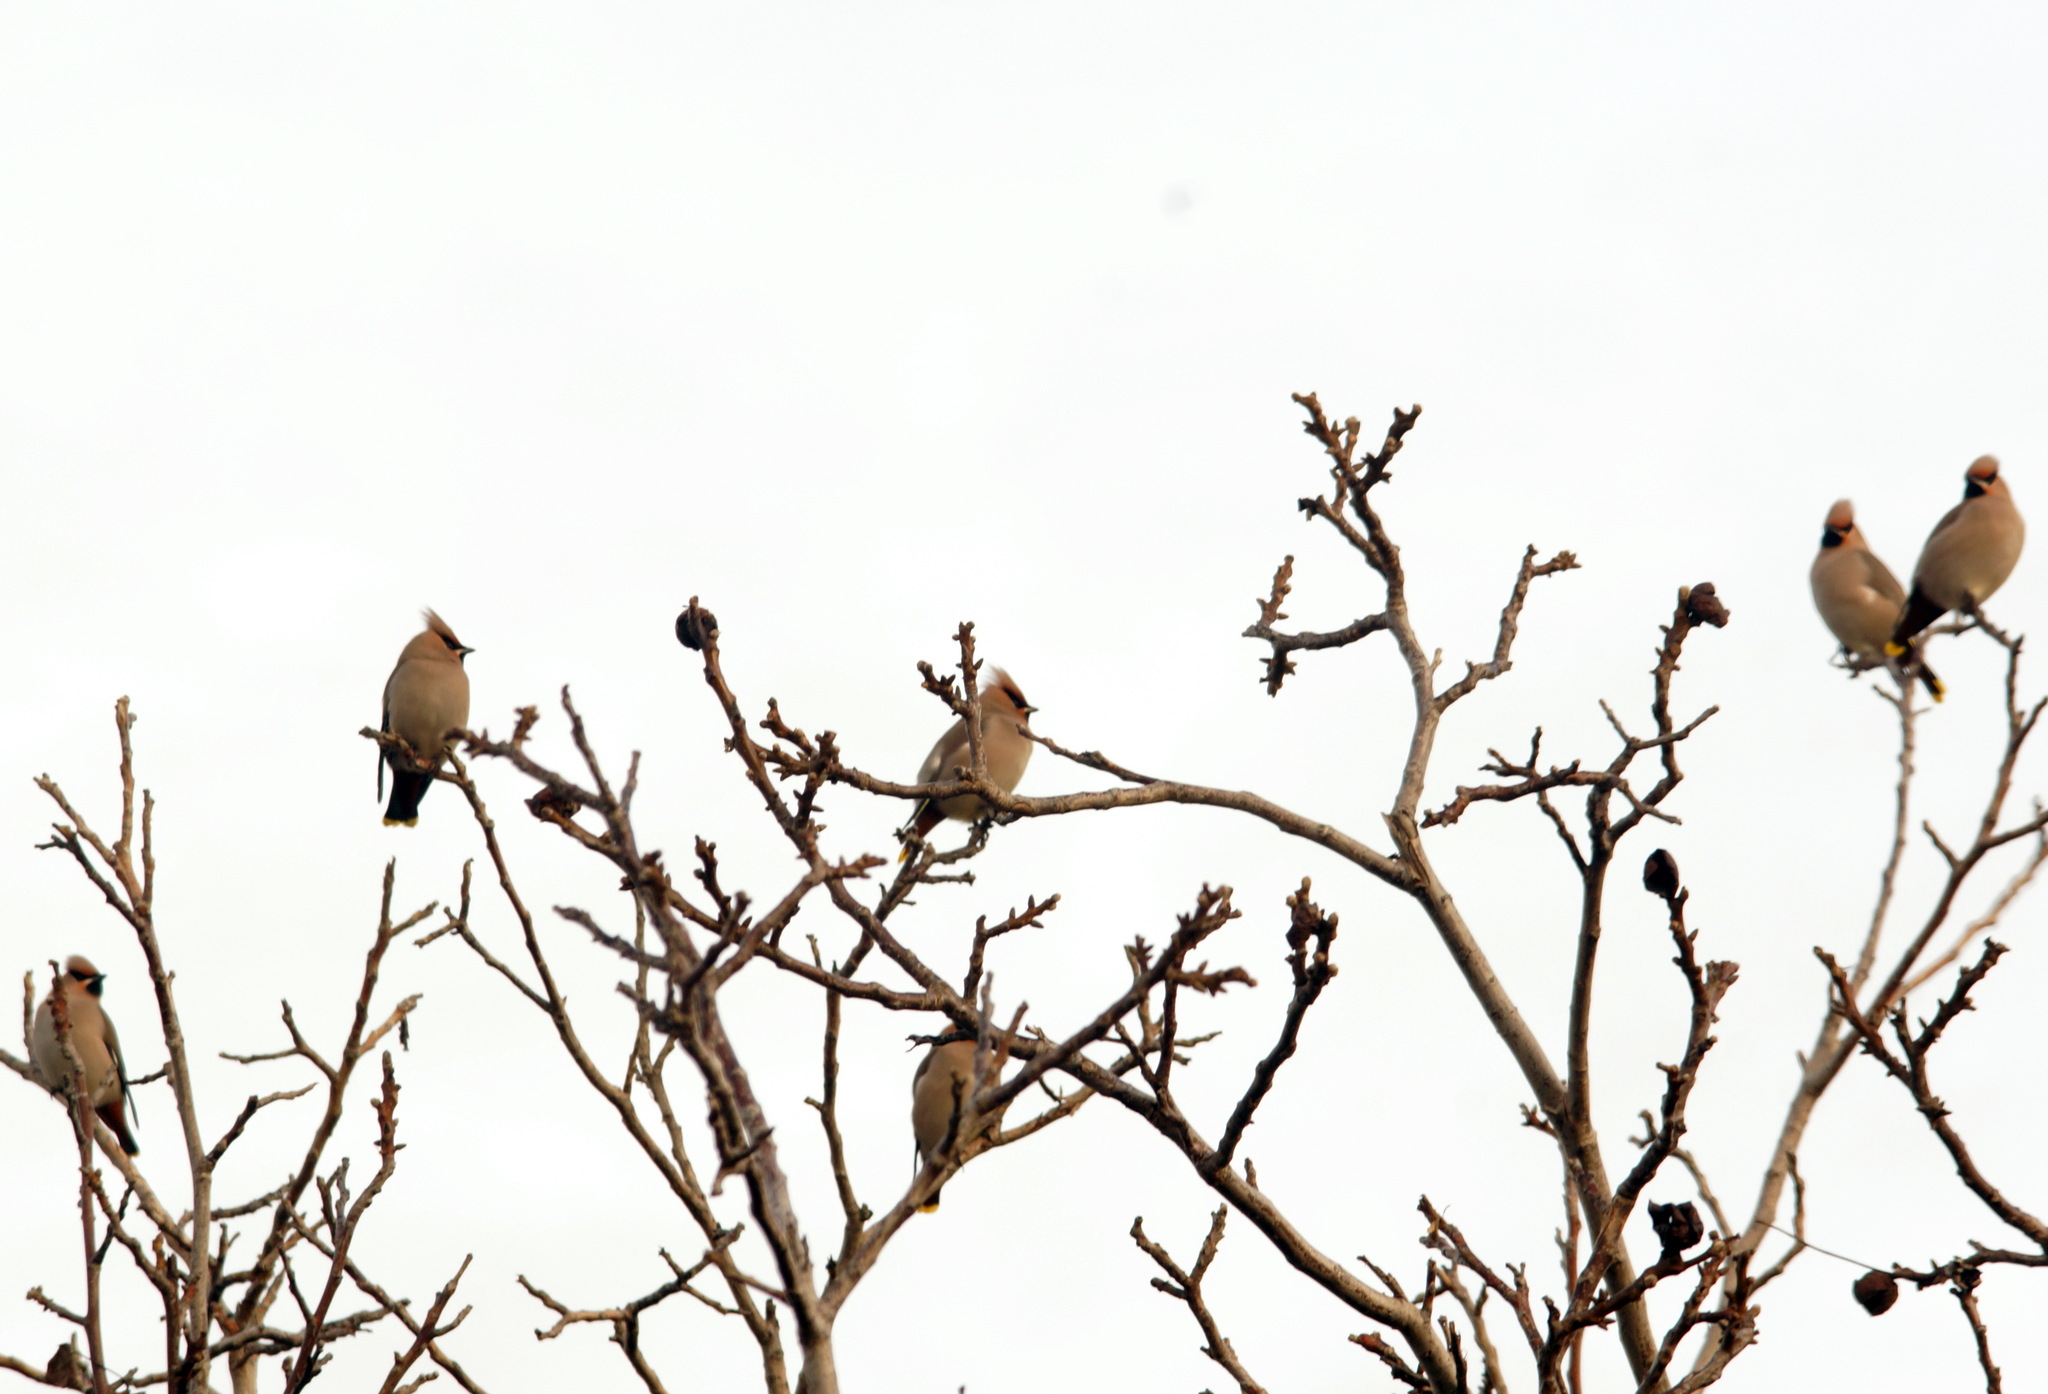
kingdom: Animalia
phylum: Chordata
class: Aves
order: Passeriformes
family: Bombycillidae
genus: Bombycilla
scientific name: Bombycilla garrulus
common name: Bohemian waxwing
